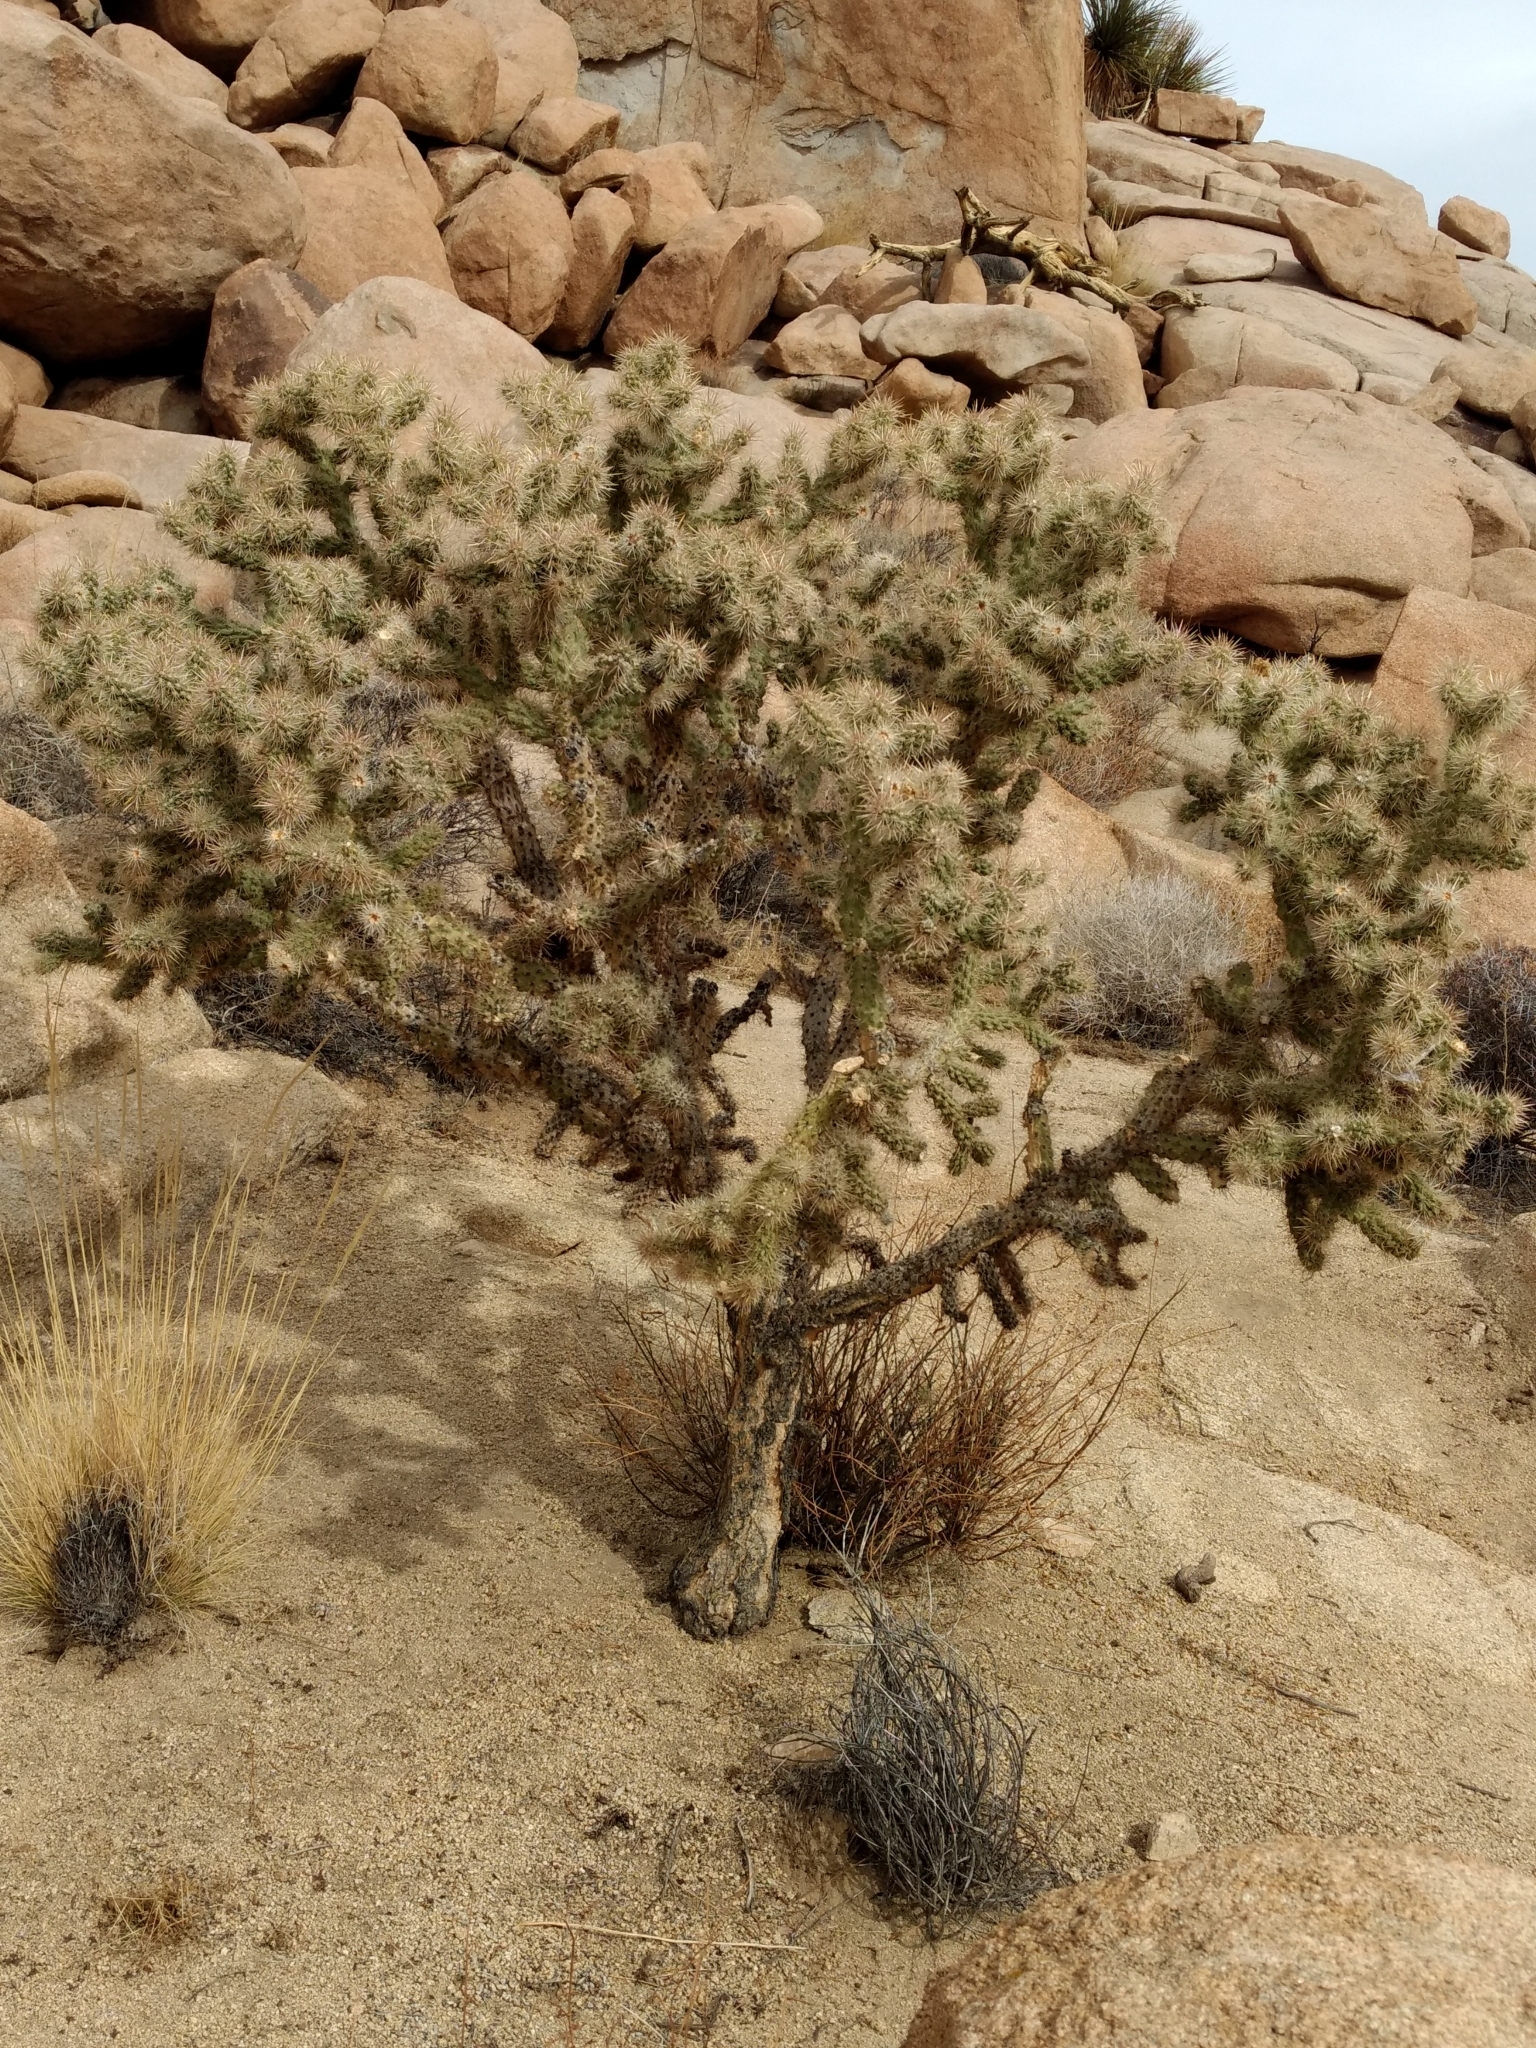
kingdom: Plantae
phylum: Tracheophyta
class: Magnoliopsida
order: Caryophyllales
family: Cactaceae
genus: Cylindropuntia
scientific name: Cylindropuntia echinocarpa
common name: Ground cholla
